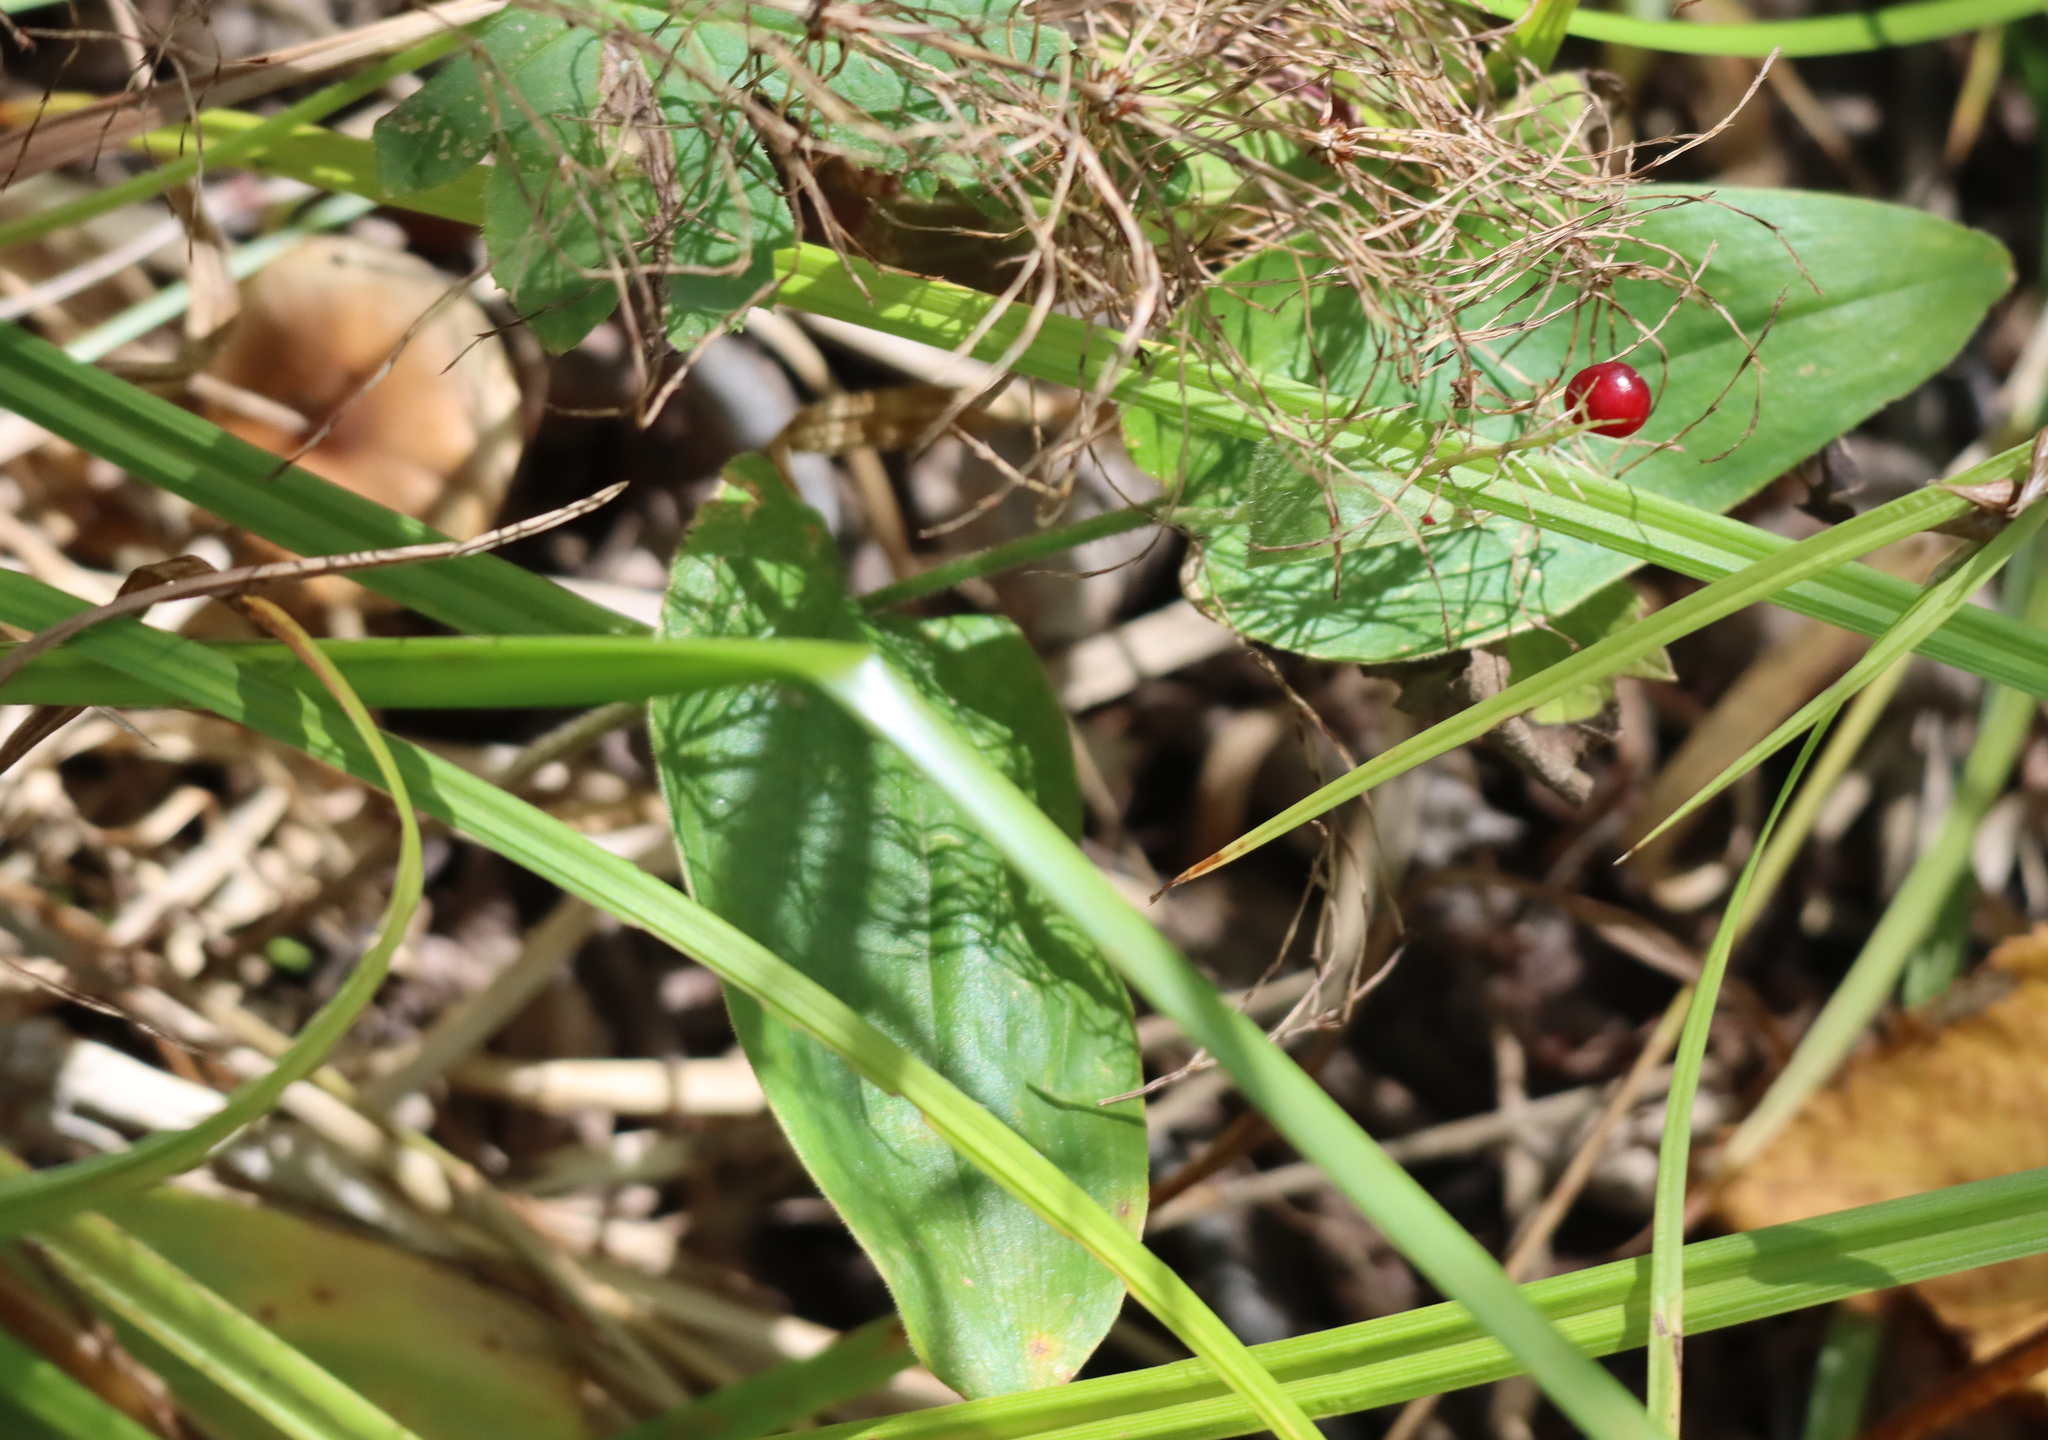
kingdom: Plantae
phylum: Tracheophyta
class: Liliopsida
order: Asparagales
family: Asparagaceae
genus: Maianthemum
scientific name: Maianthemum canadense
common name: False lily-of-the-valley
